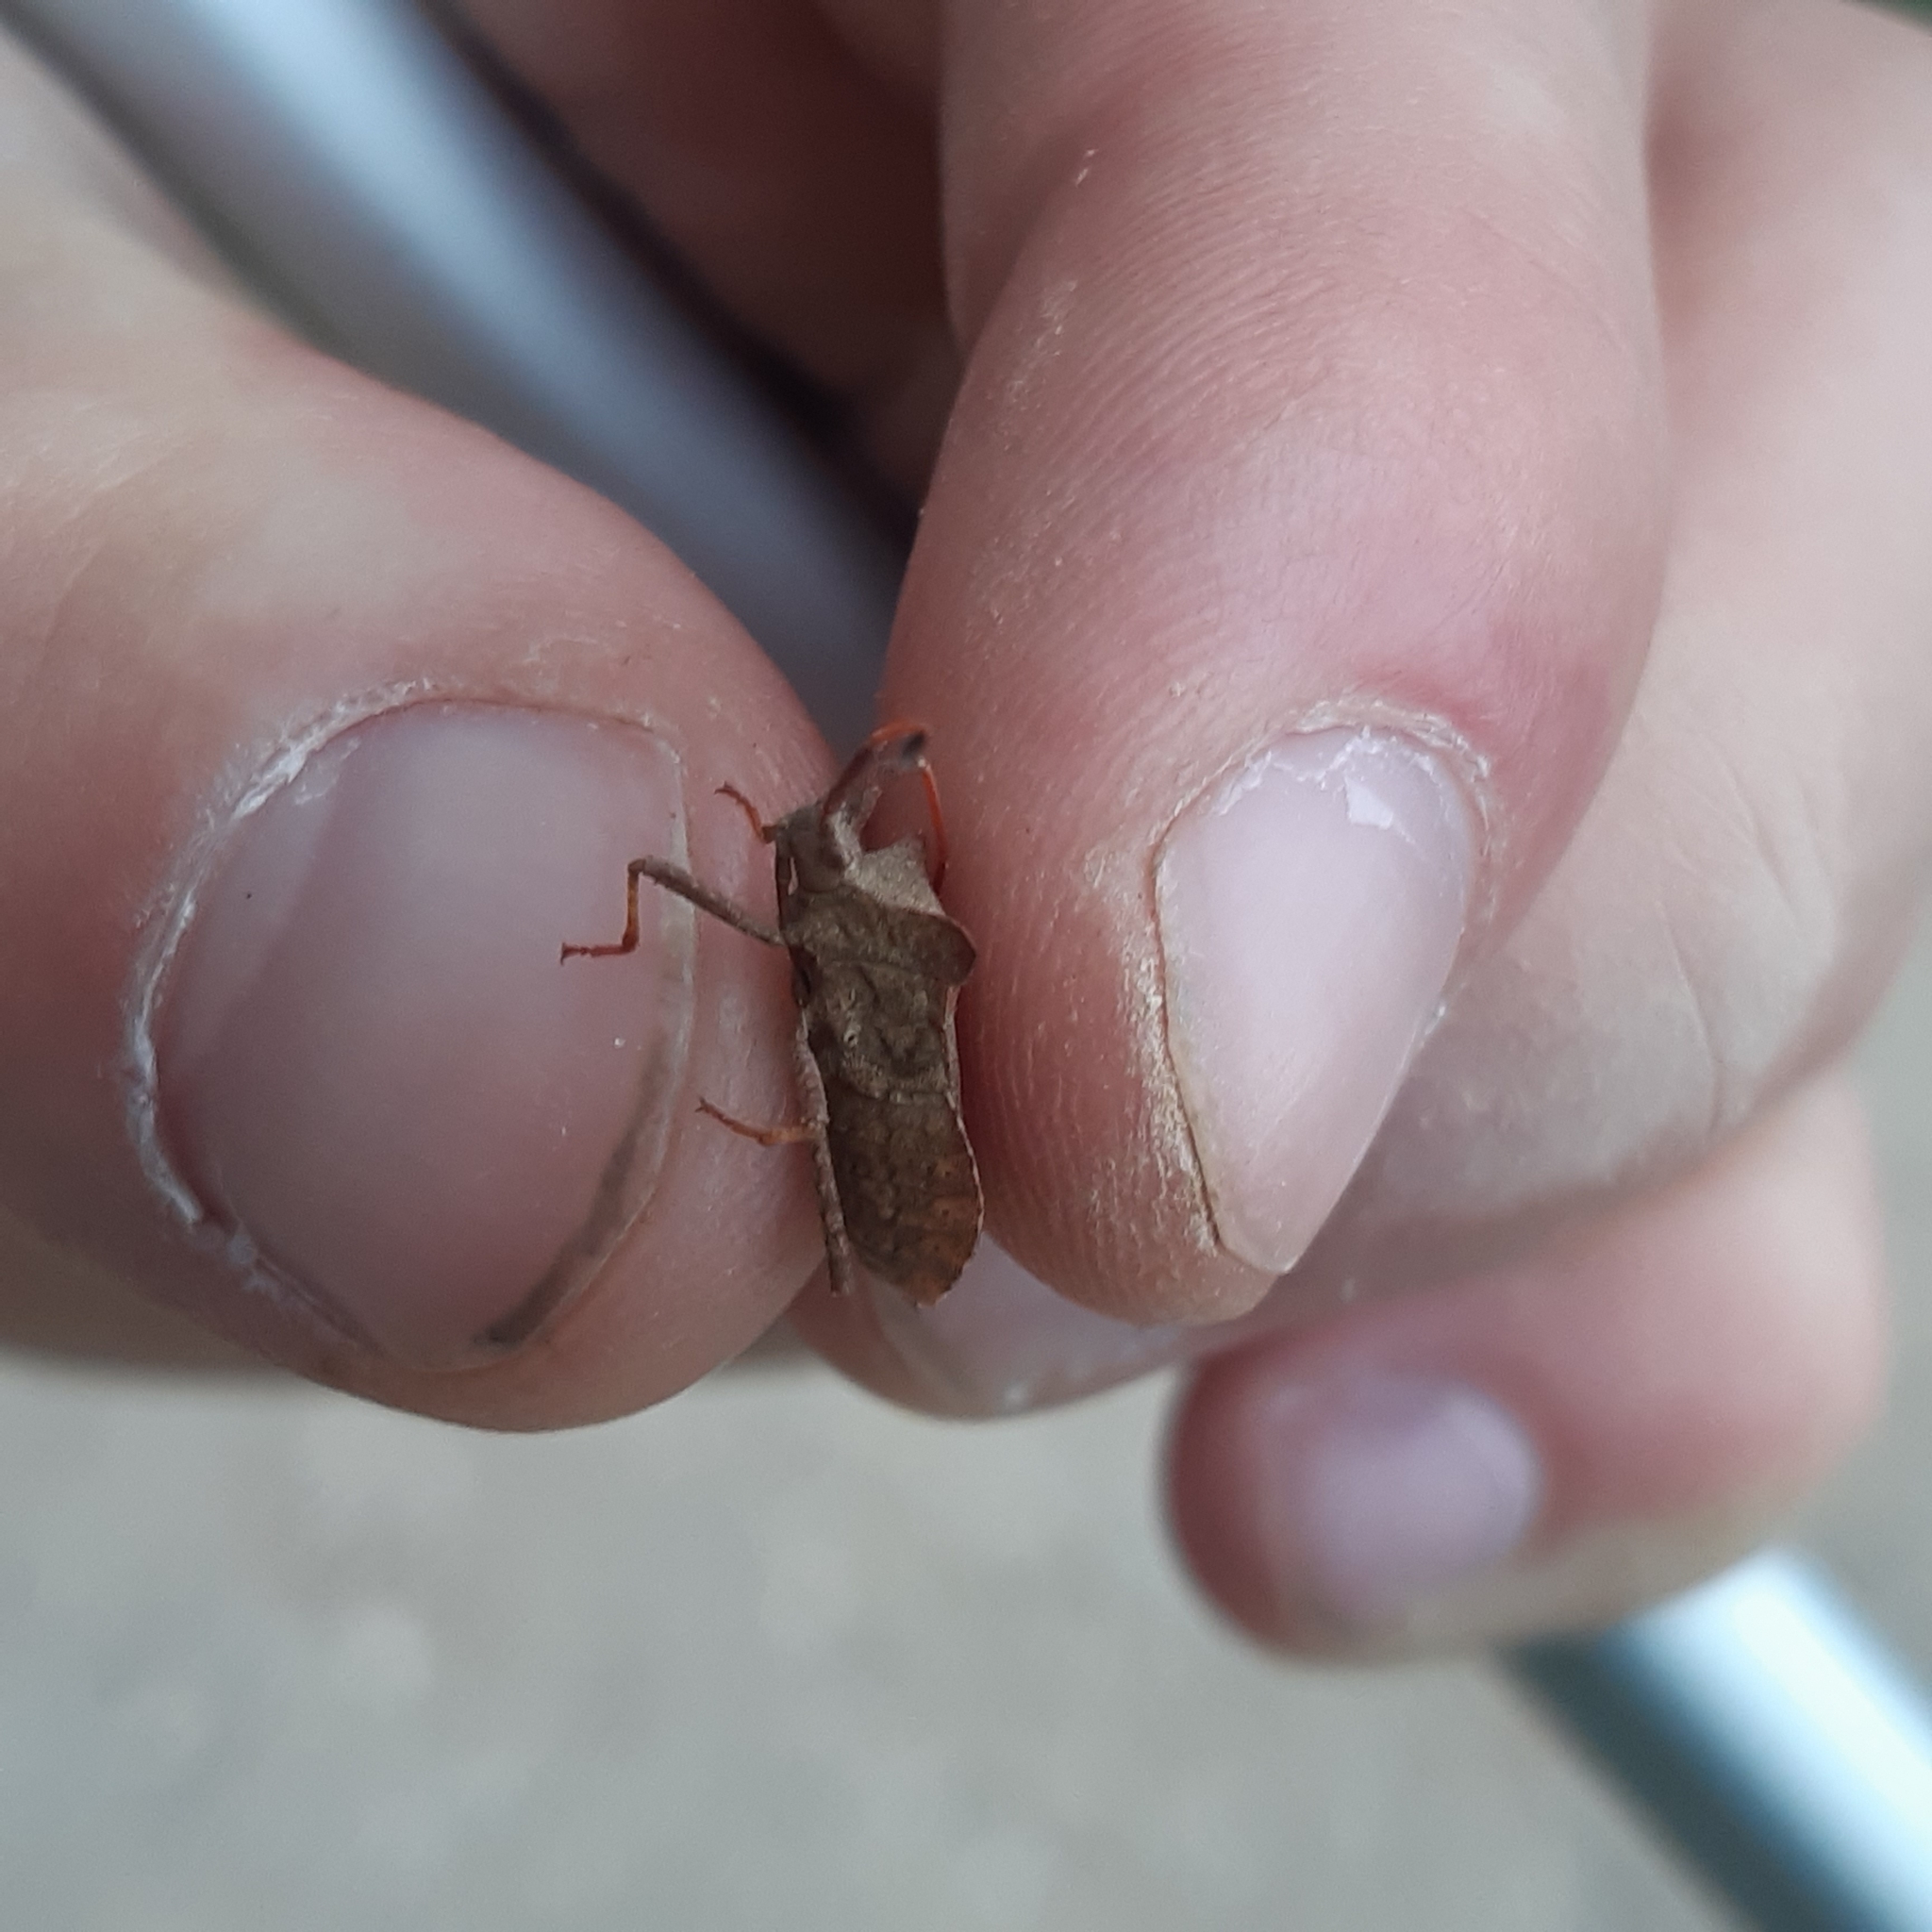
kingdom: Animalia
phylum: Arthropoda
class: Insecta
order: Hemiptera
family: Coreidae
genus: Coreus
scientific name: Coreus marginatus
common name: Dock bug
